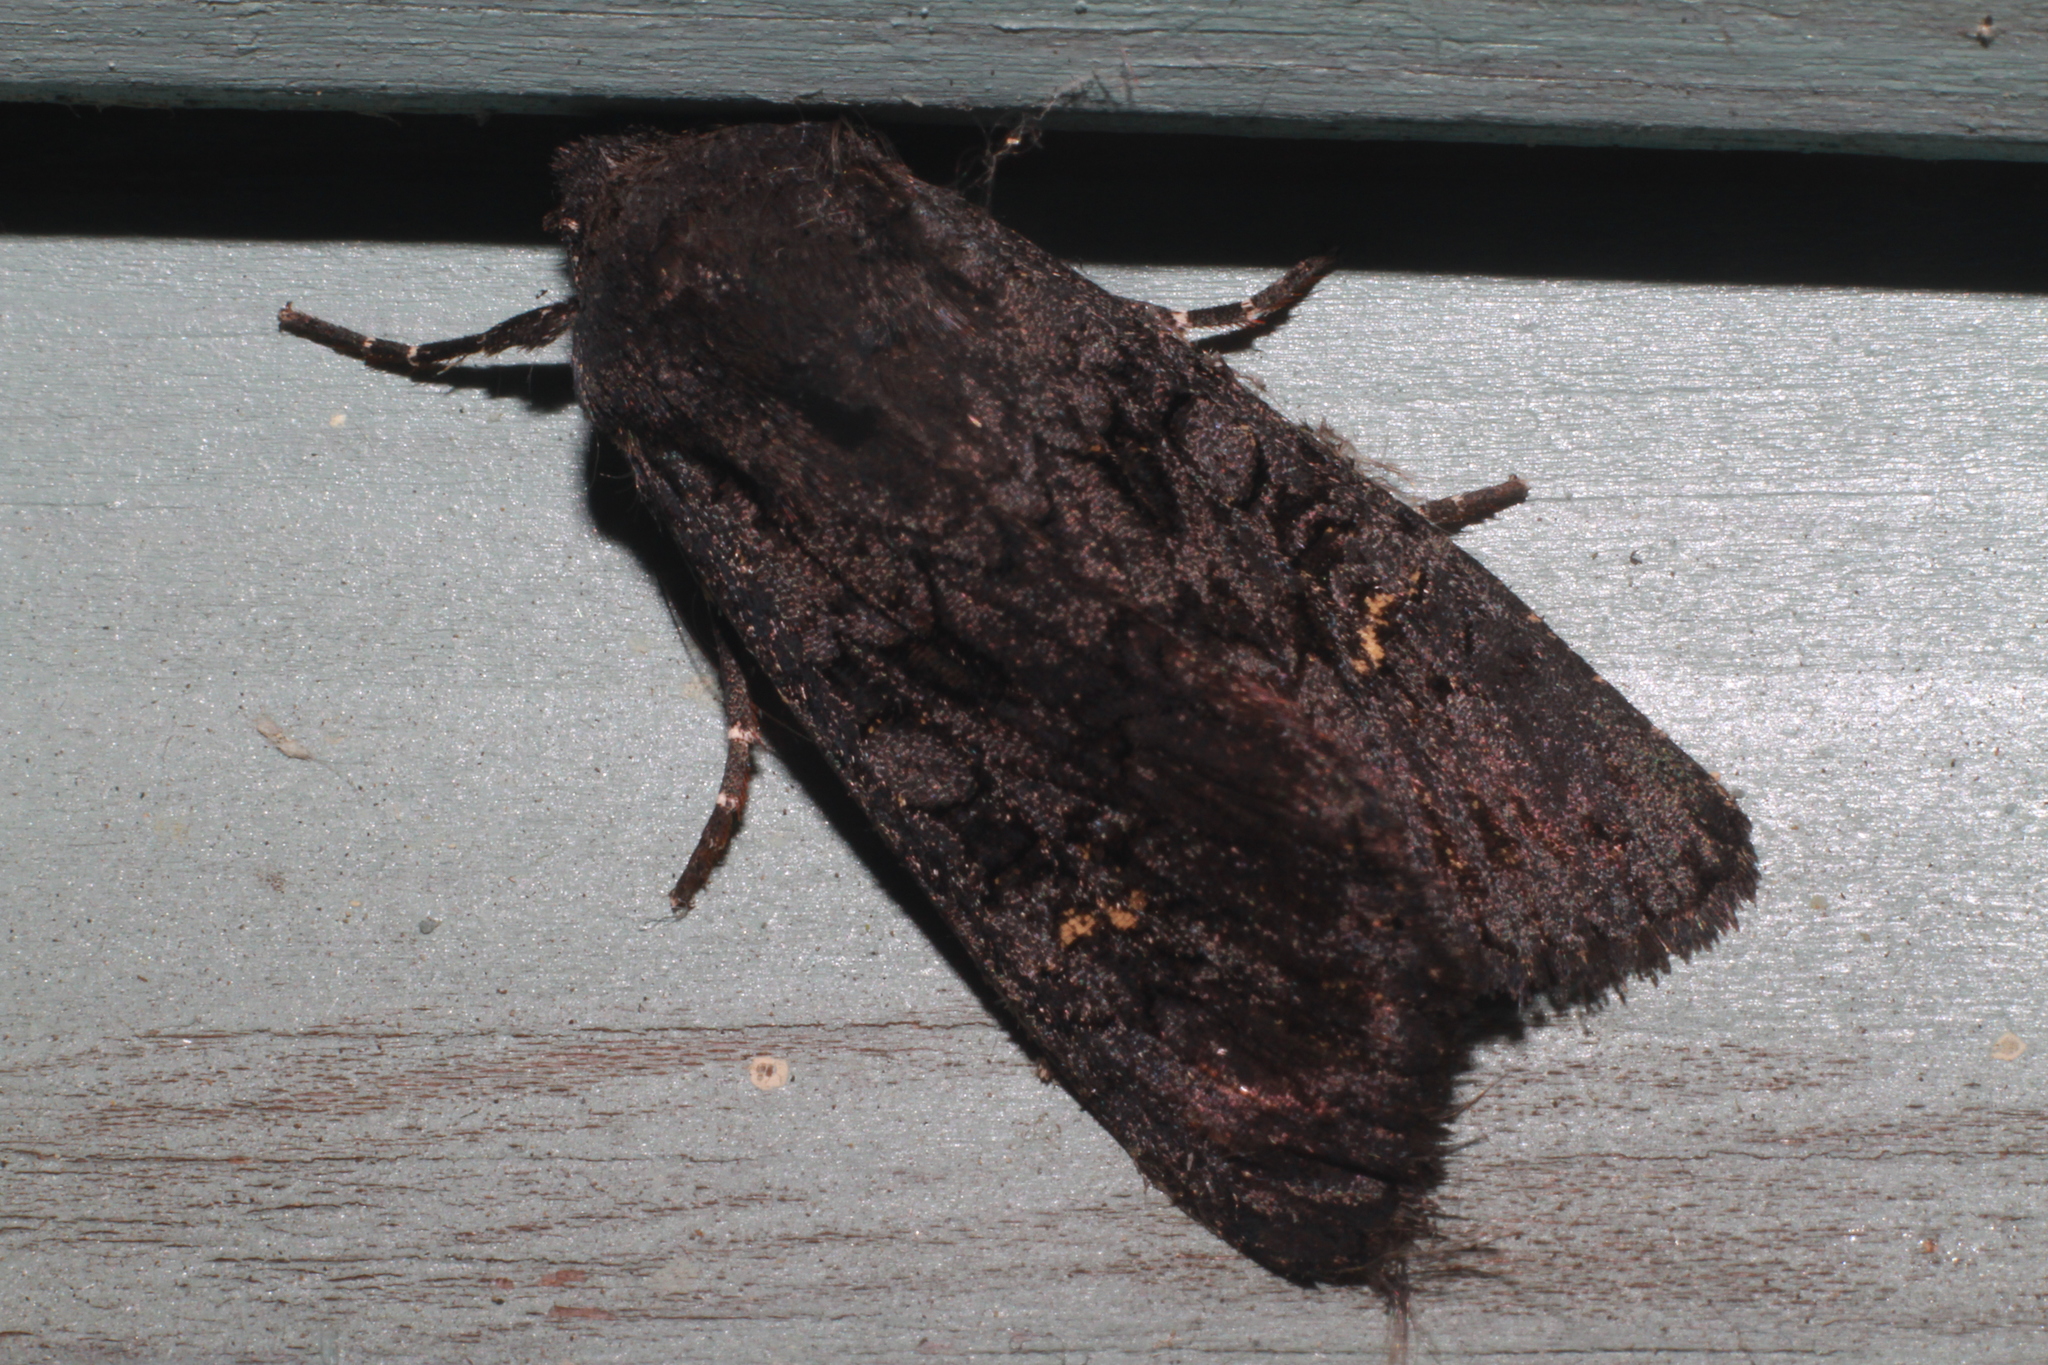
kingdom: Animalia
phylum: Arthropoda
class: Insecta
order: Lepidoptera
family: Noctuidae
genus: Aporophyla
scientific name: Aporophyla nigra
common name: Black rustic
